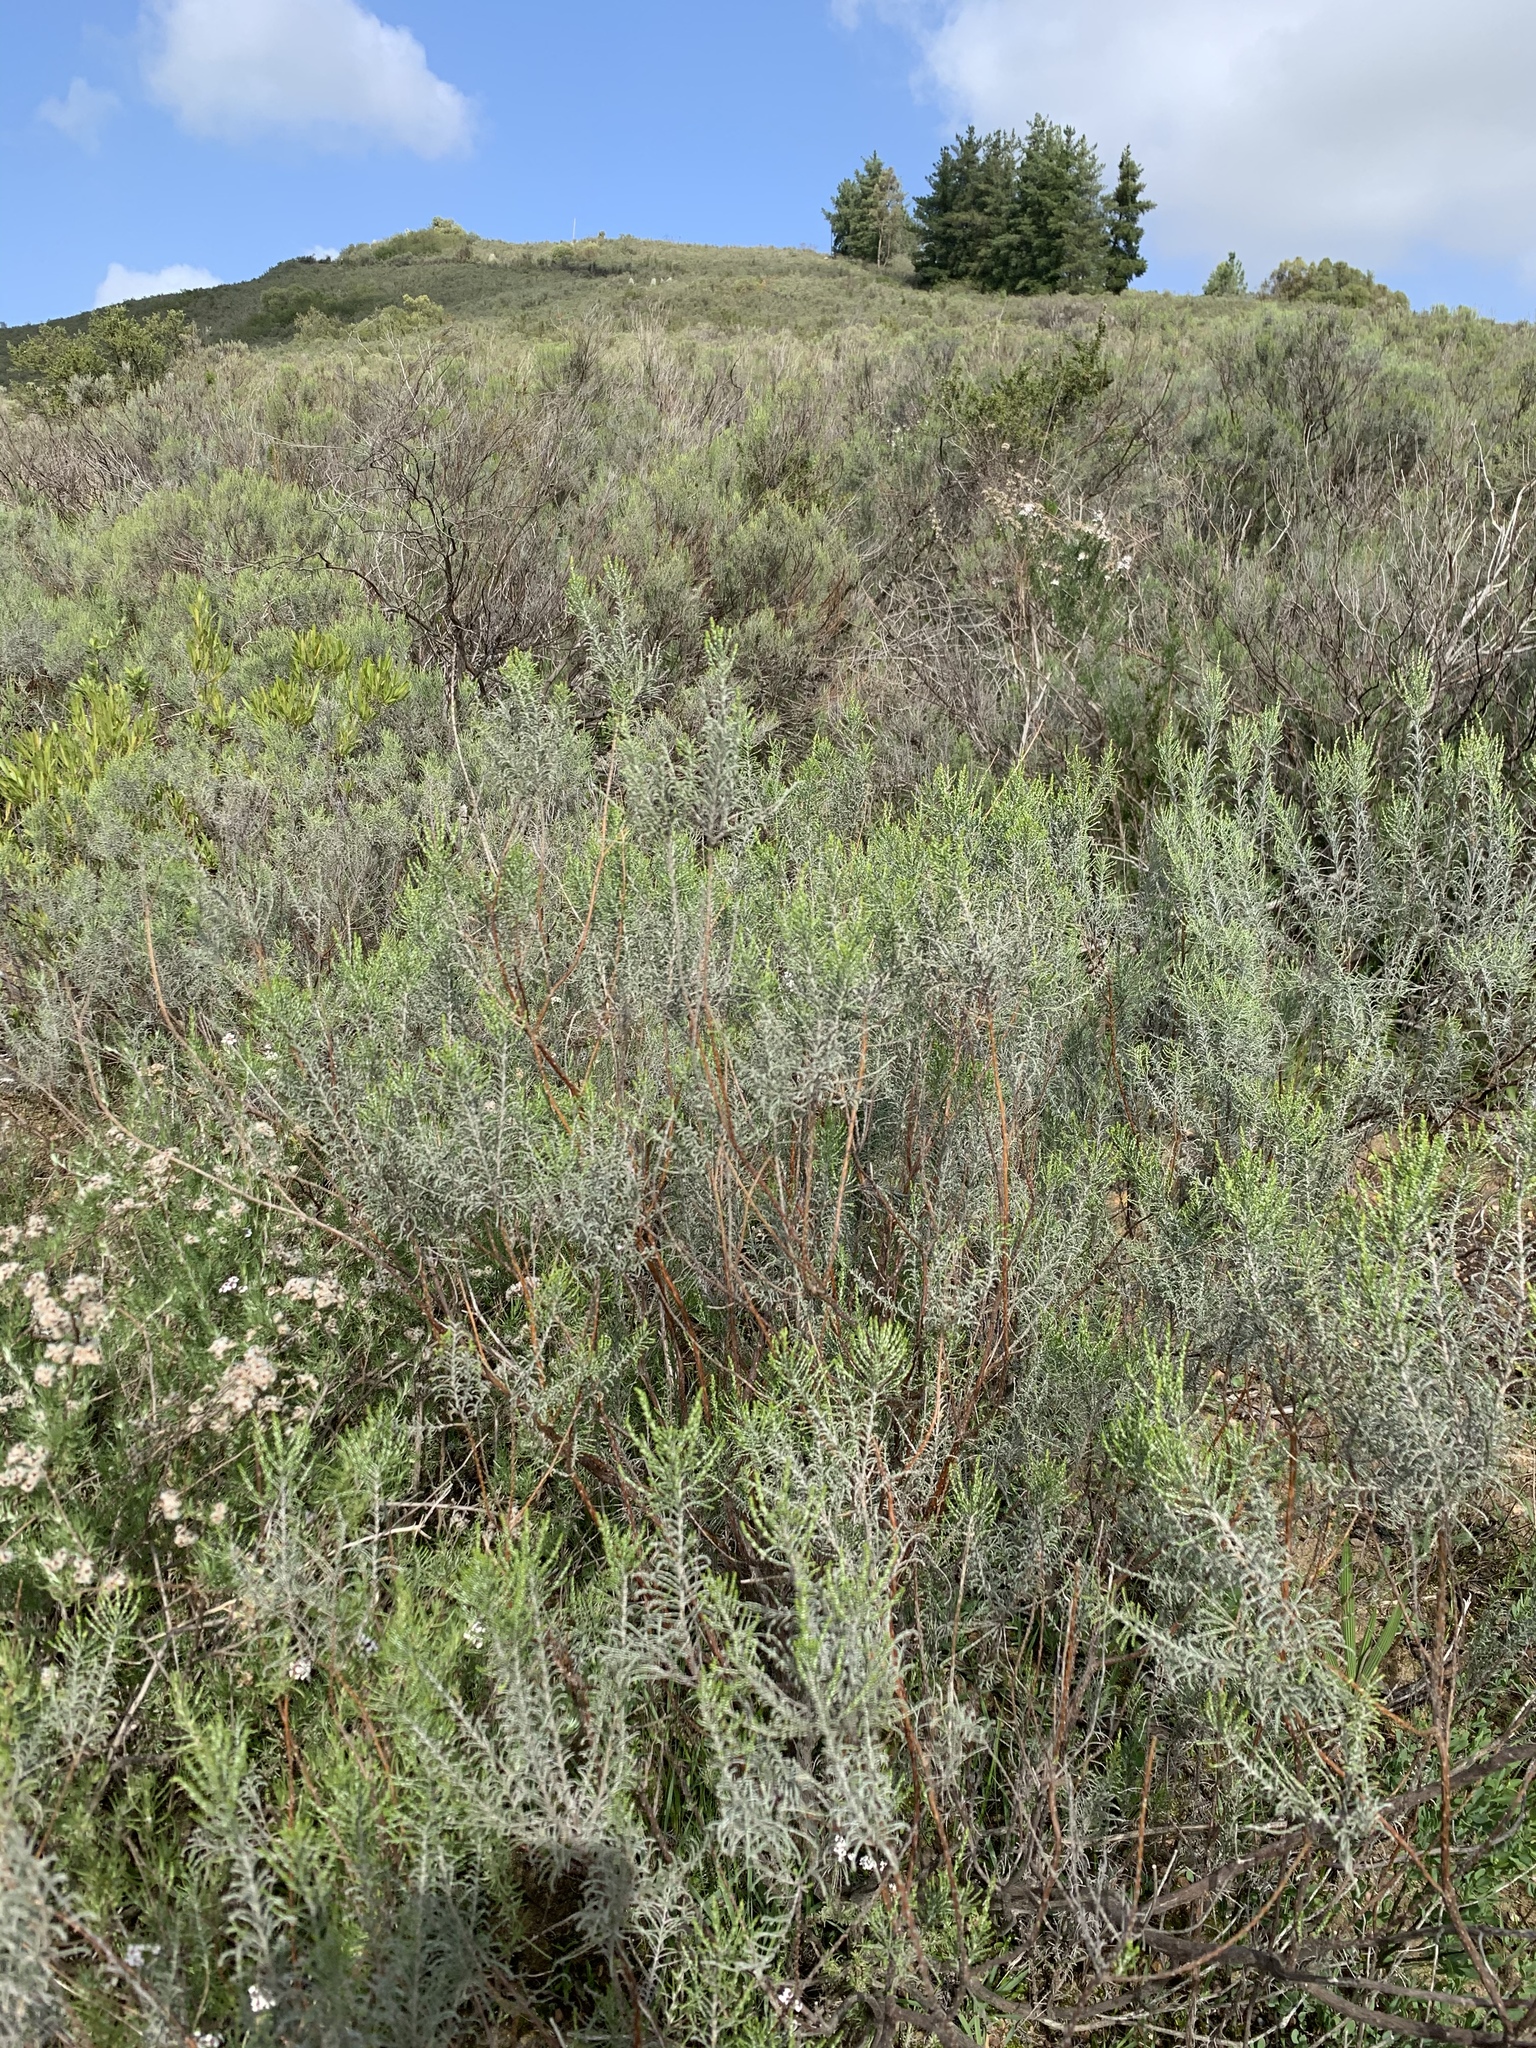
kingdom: Plantae
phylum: Tracheophyta
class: Magnoliopsida
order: Asterales
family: Asteraceae
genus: Dicerothamnus
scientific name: Dicerothamnus rhinocerotis
